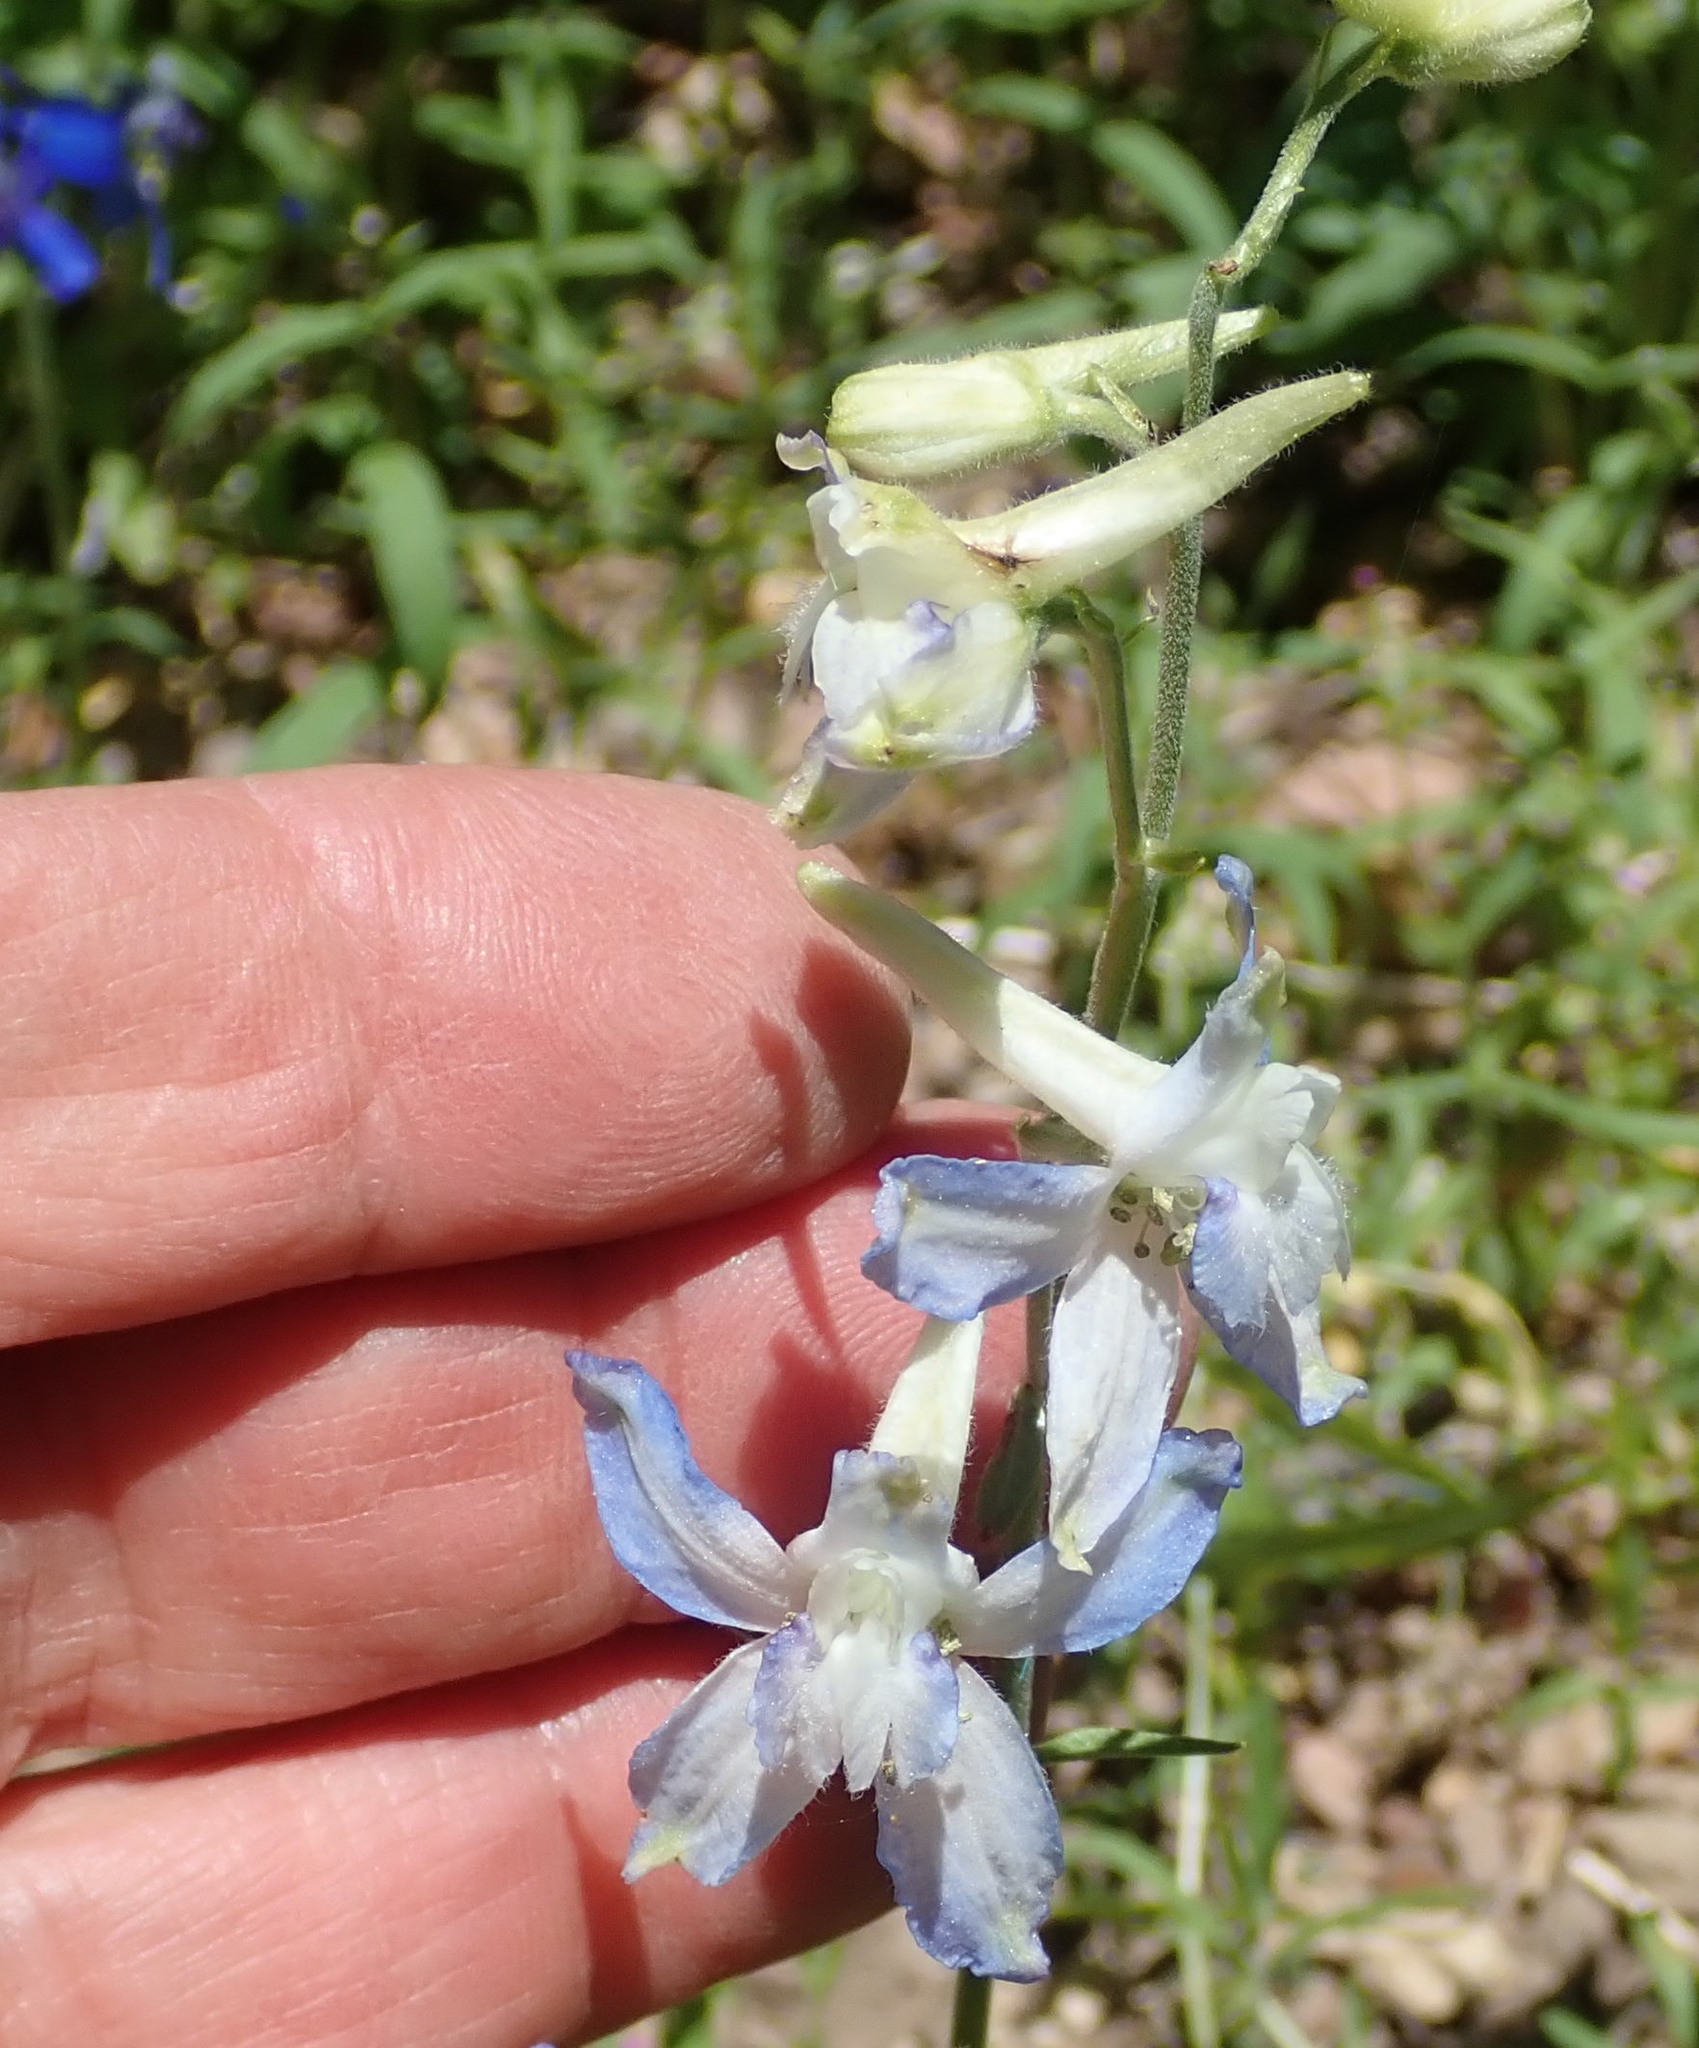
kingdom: Plantae
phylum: Tracheophyta
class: Magnoliopsida
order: Ranunculales
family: Ranunculaceae
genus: Delphinium
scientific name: Delphinium nuttallianum
